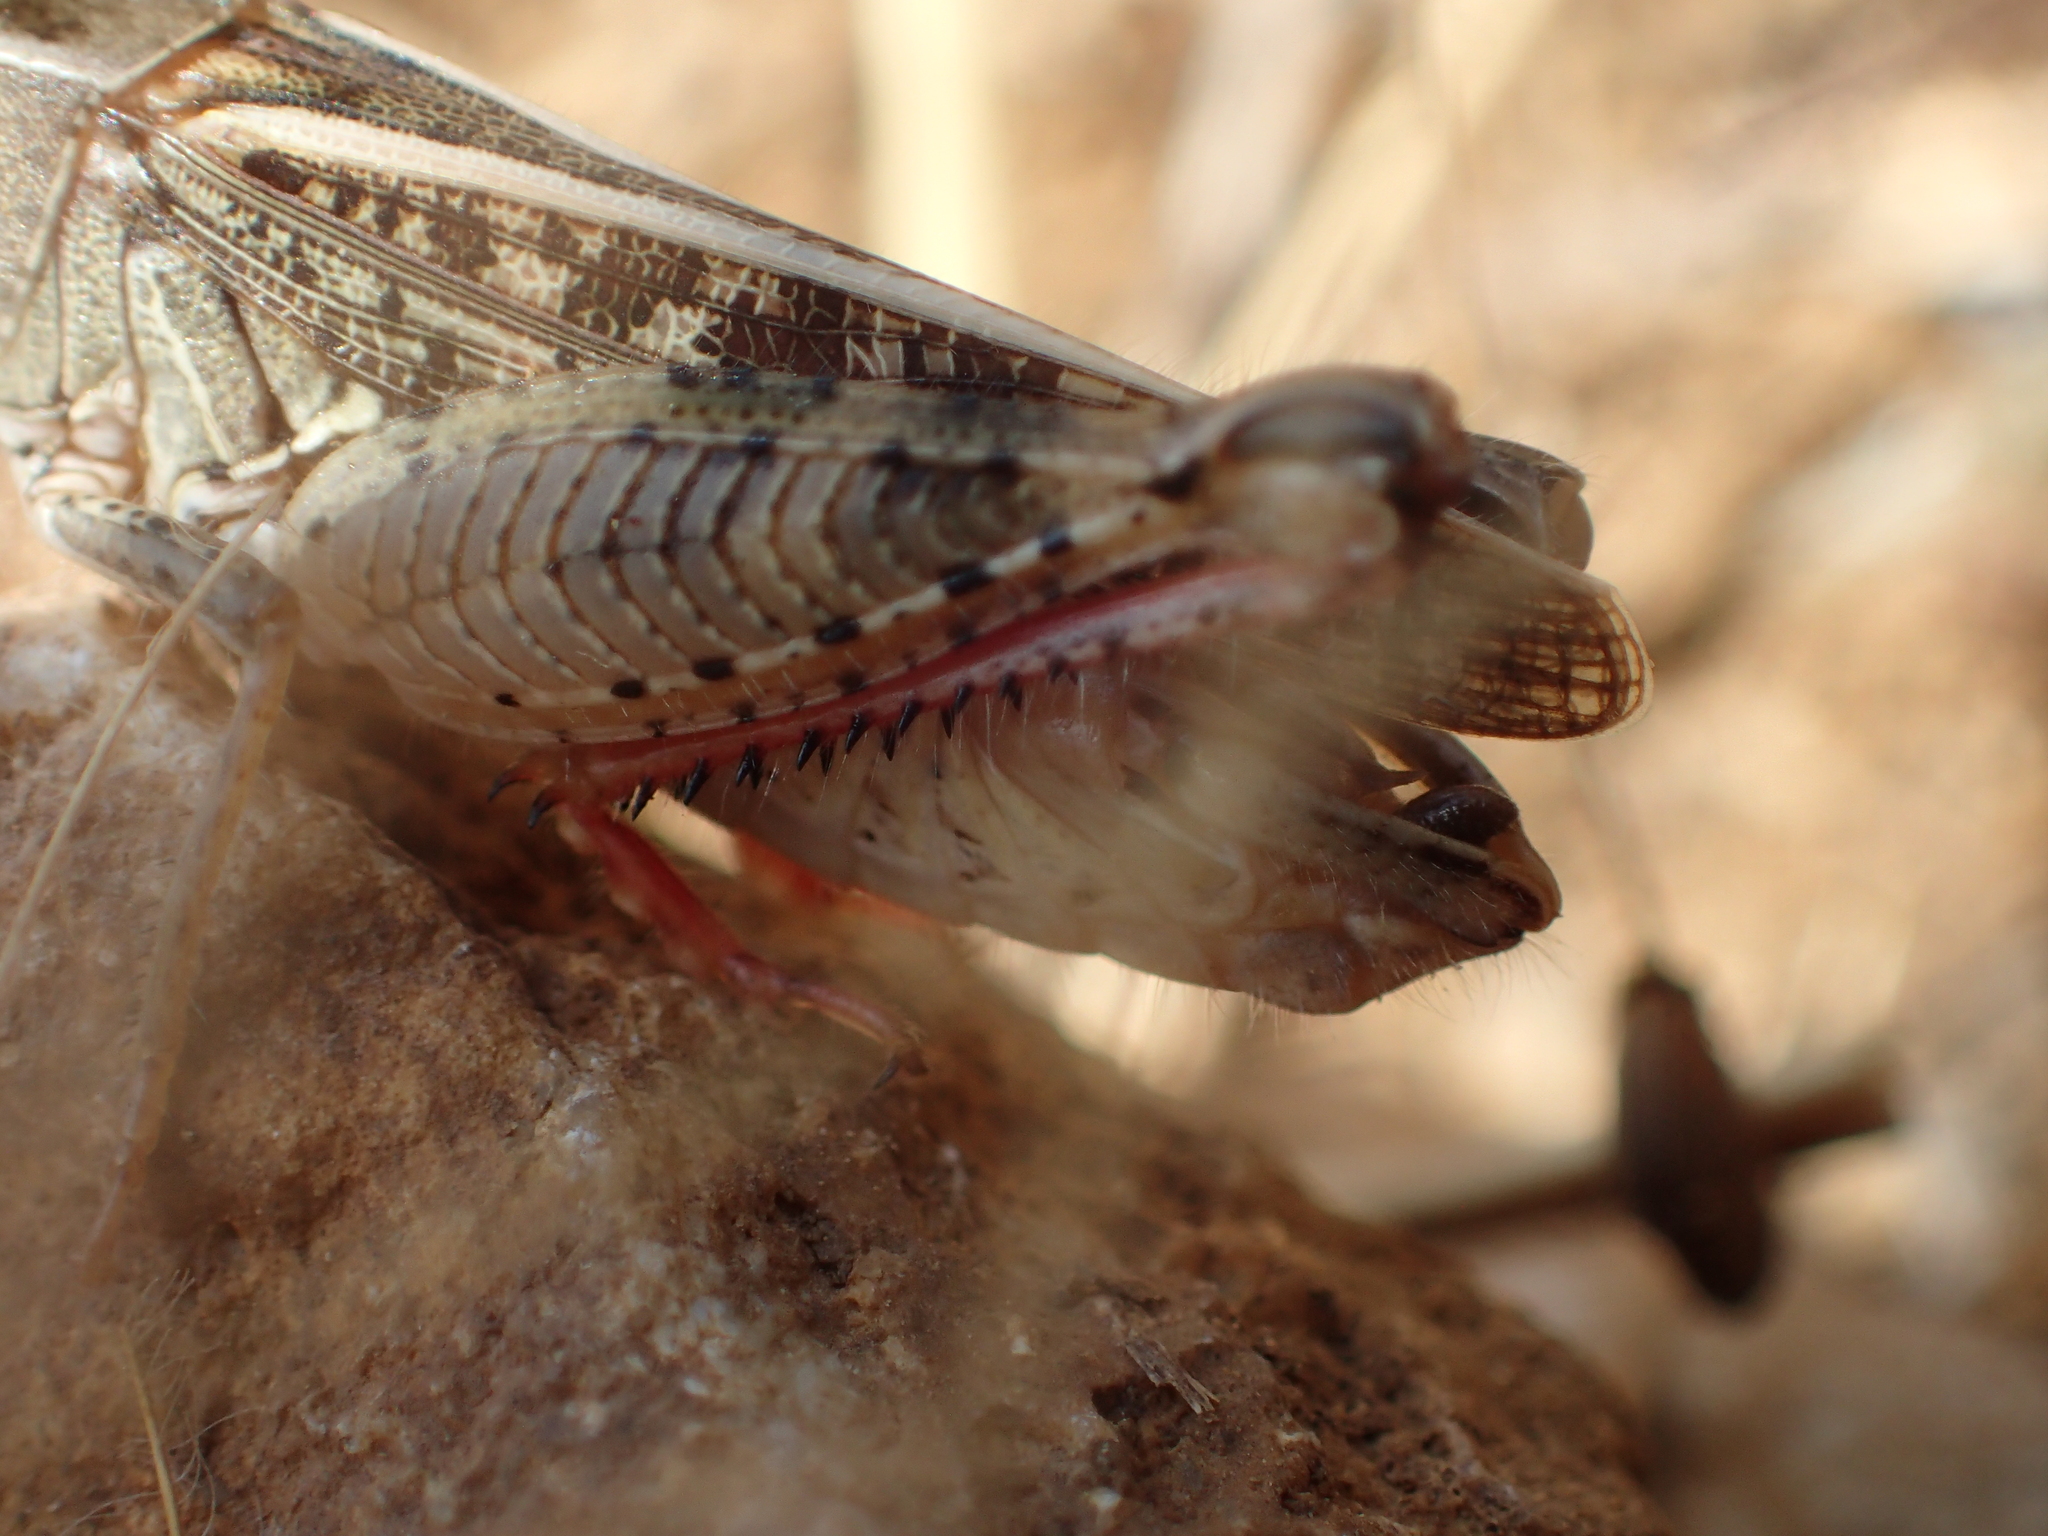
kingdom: Animalia
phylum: Arthropoda
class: Insecta
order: Orthoptera
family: Acrididae
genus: Calliptamus
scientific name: Calliptamus italicus
